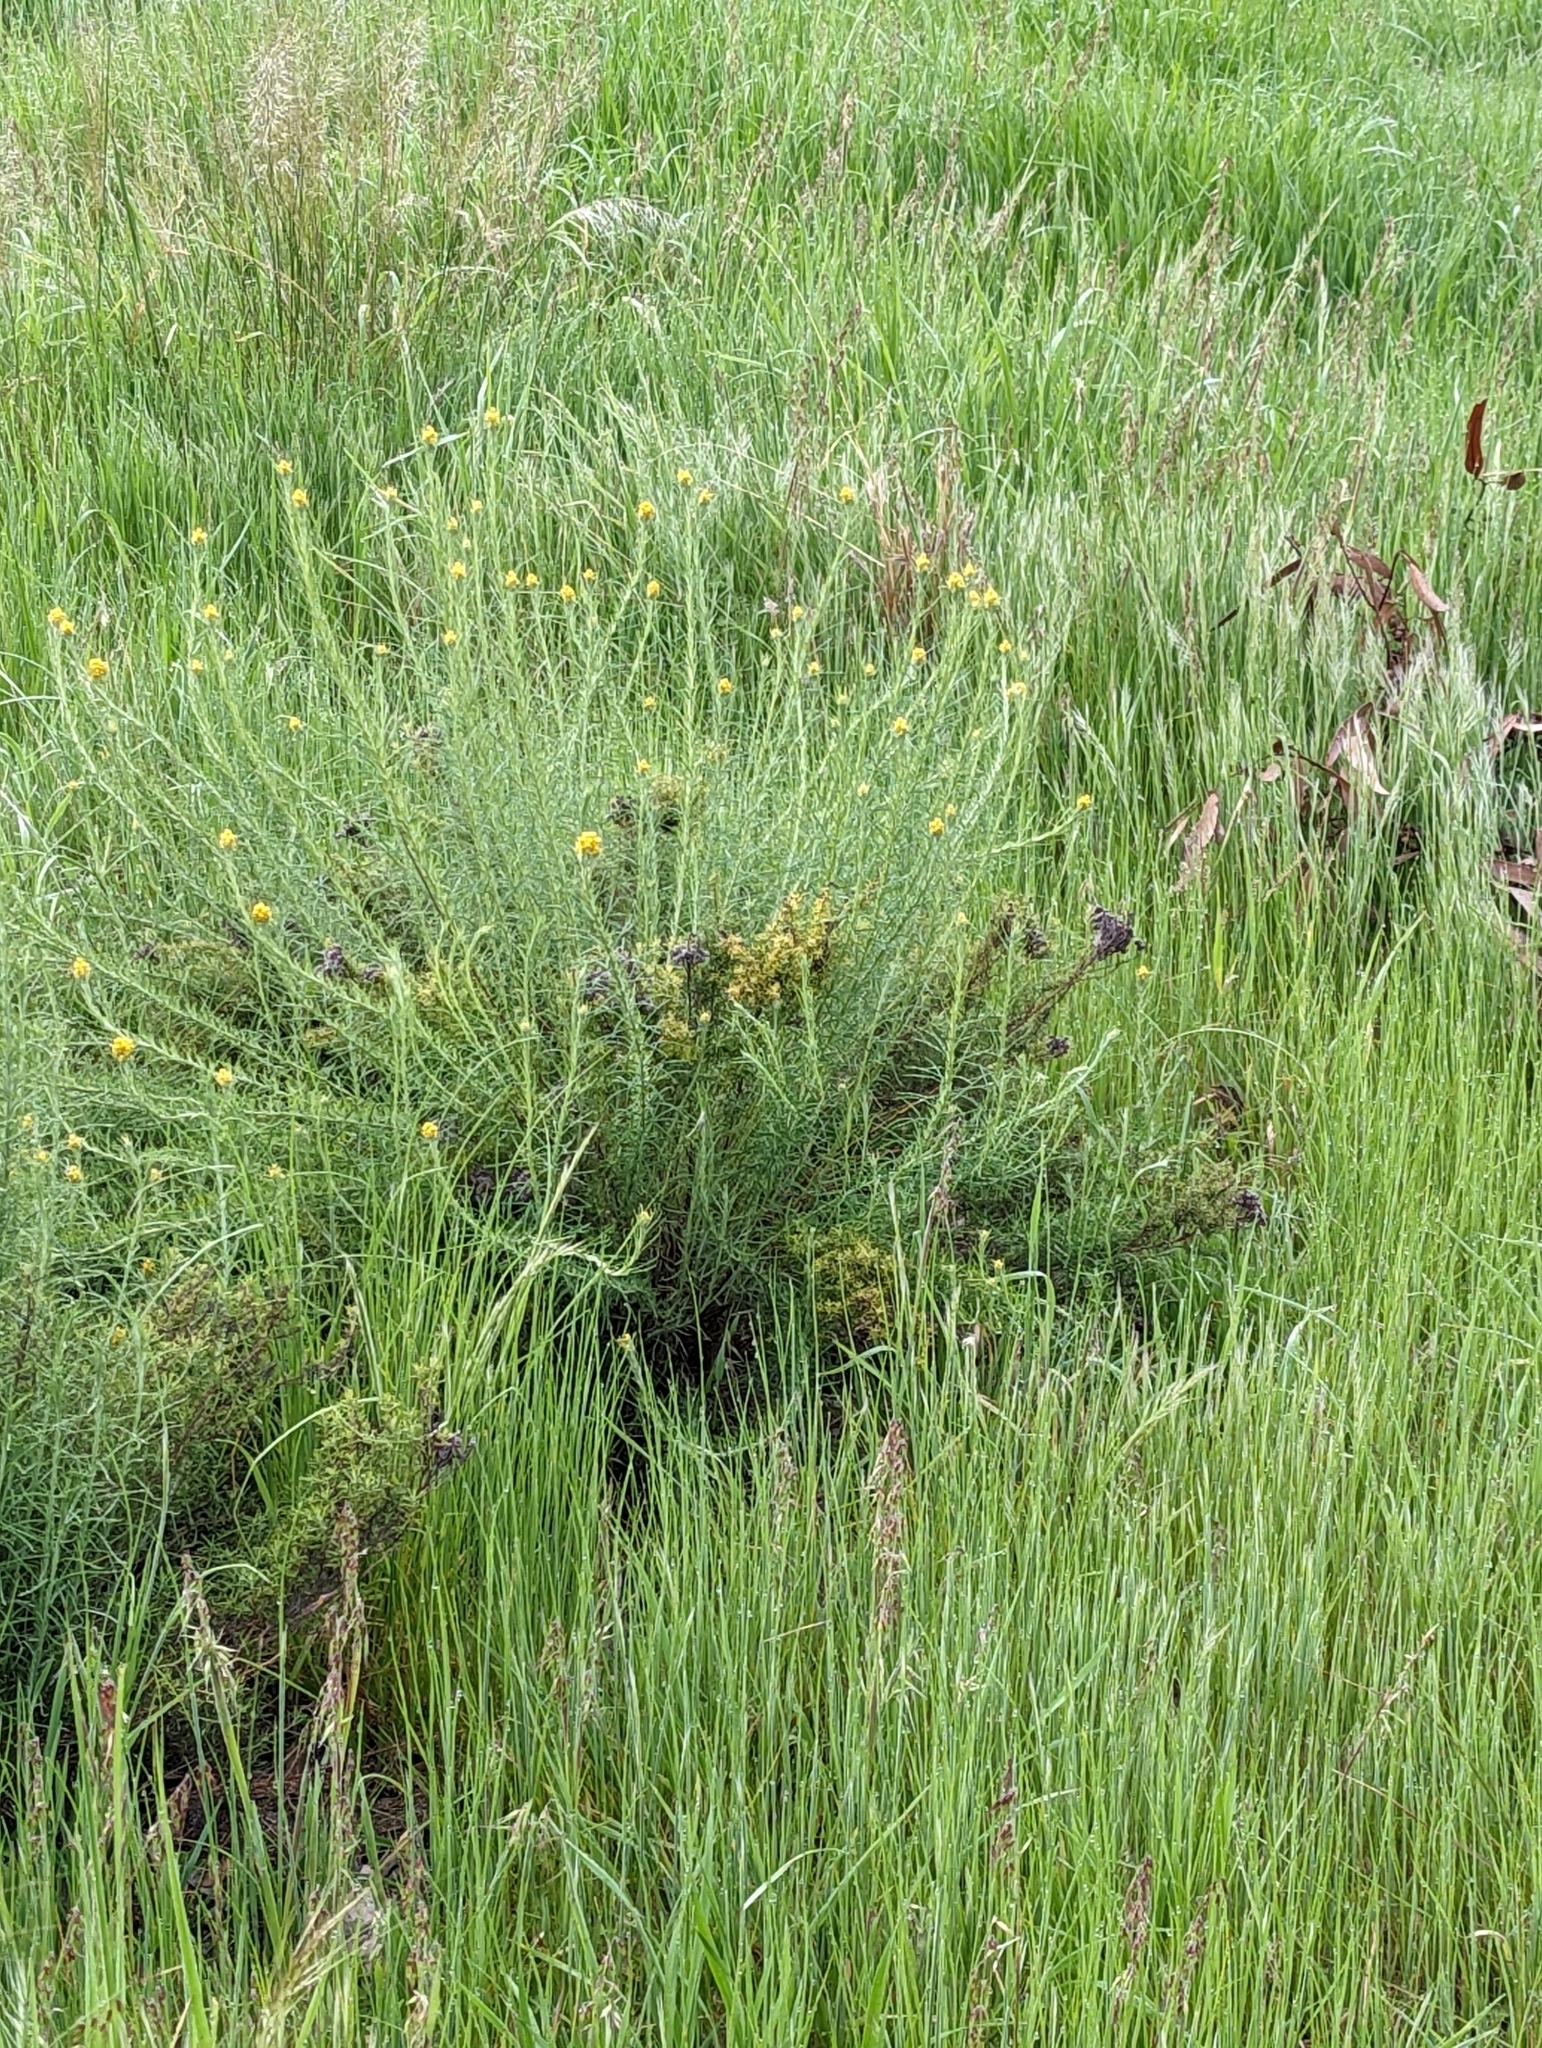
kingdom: Plantae
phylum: Tracheophyta
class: Magnoliopsida
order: Asterales
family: Asteraceae
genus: Chrysocephalum
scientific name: Chrysocephalum semipapposum
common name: Clustered everlasting
